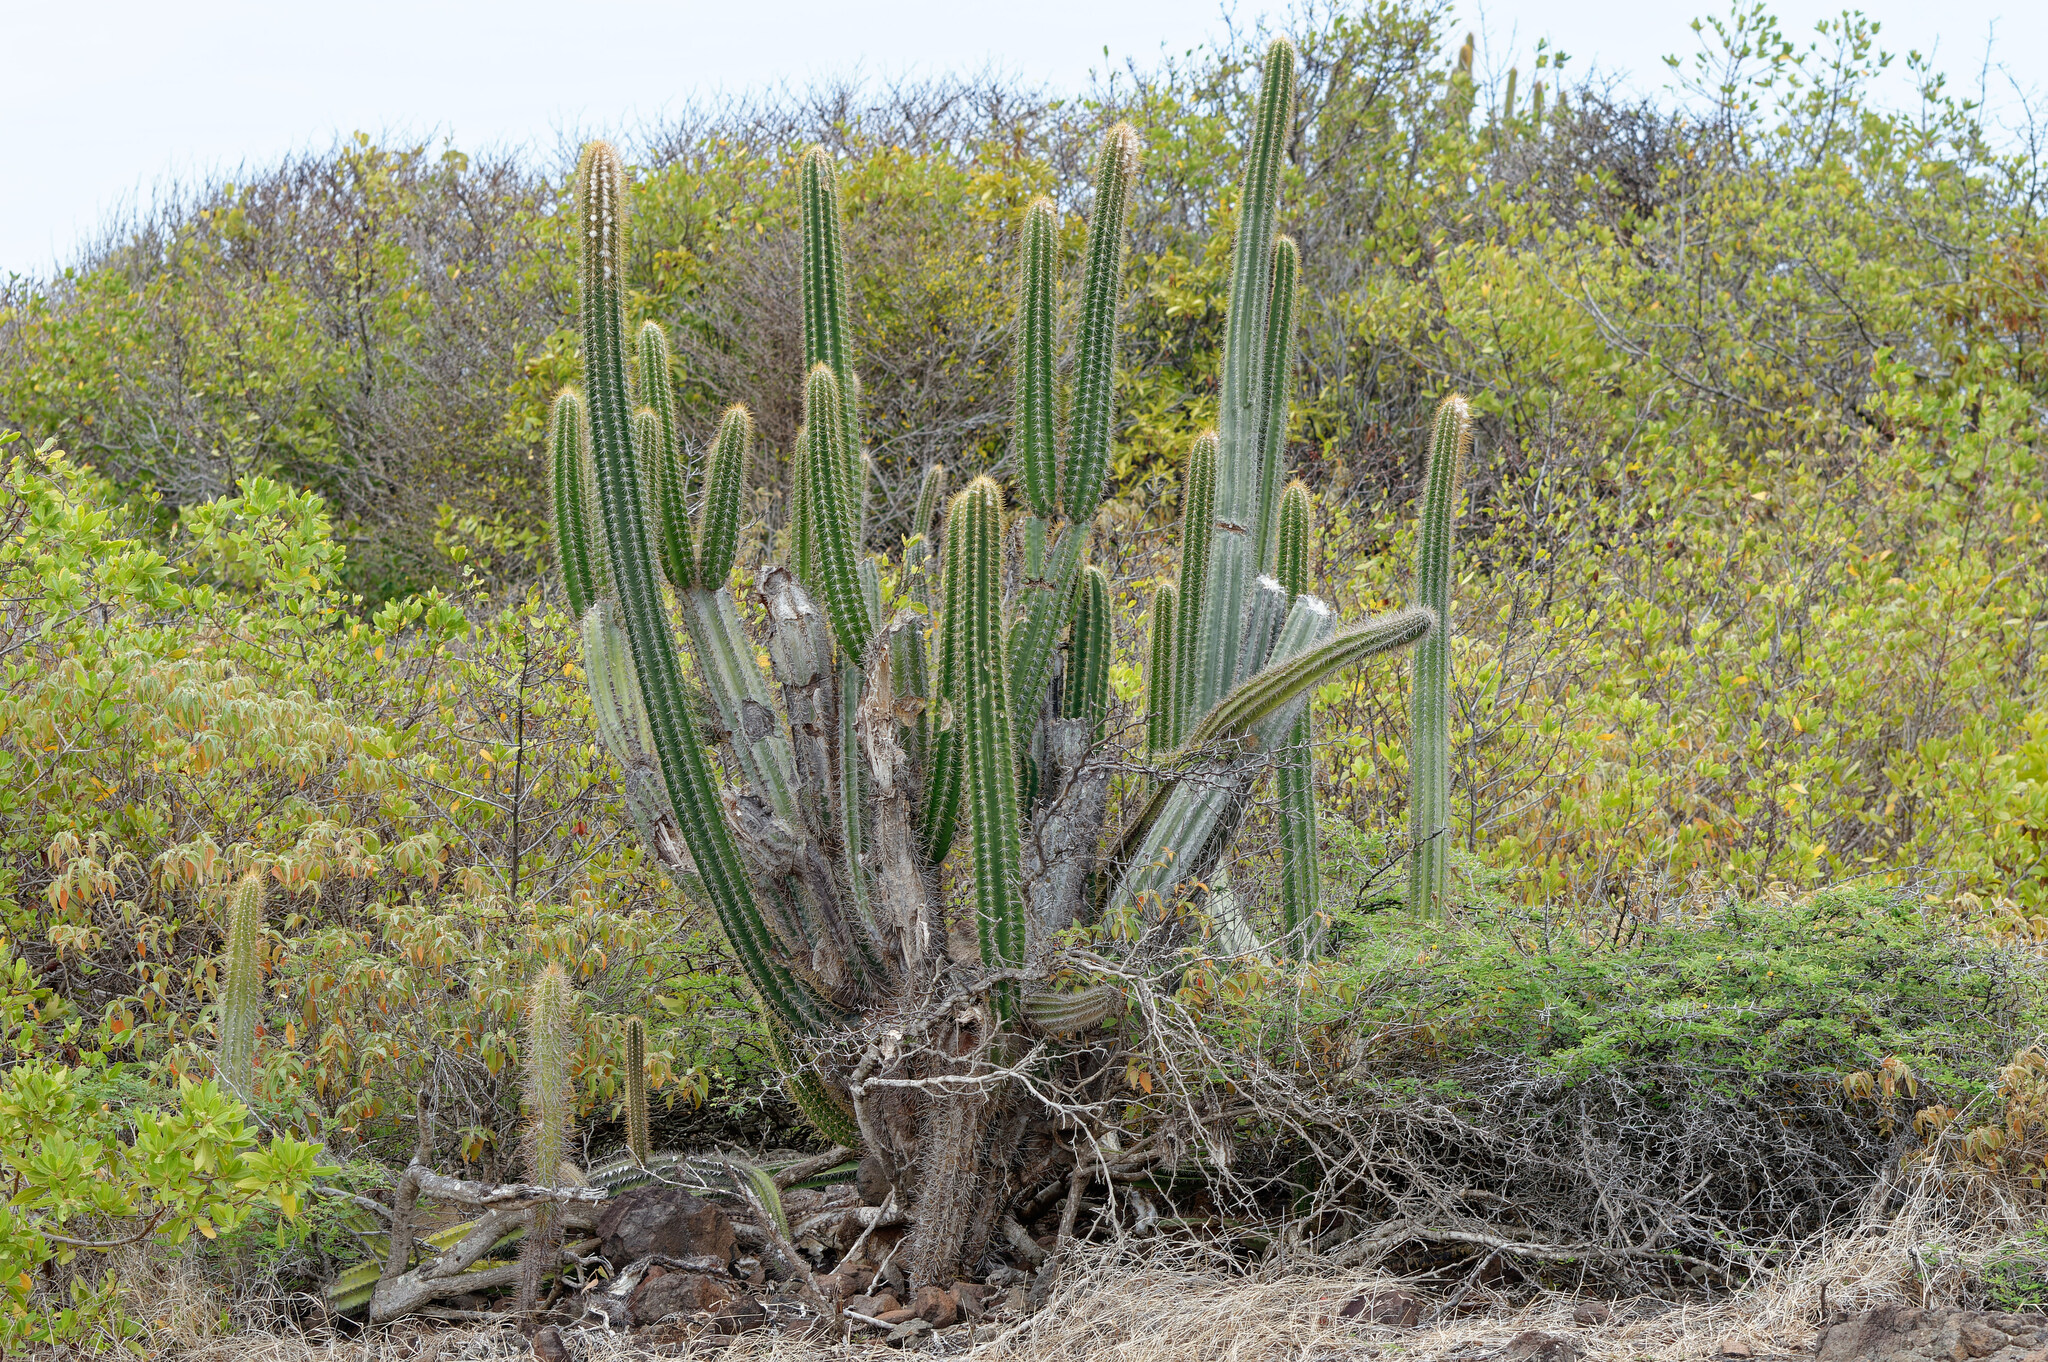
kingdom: Plantae
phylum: Tracheophyta
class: Magnoliopsida
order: Caryophyllales
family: Cactaceae
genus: Pilosocereus
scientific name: Pilosocereus curtisii
